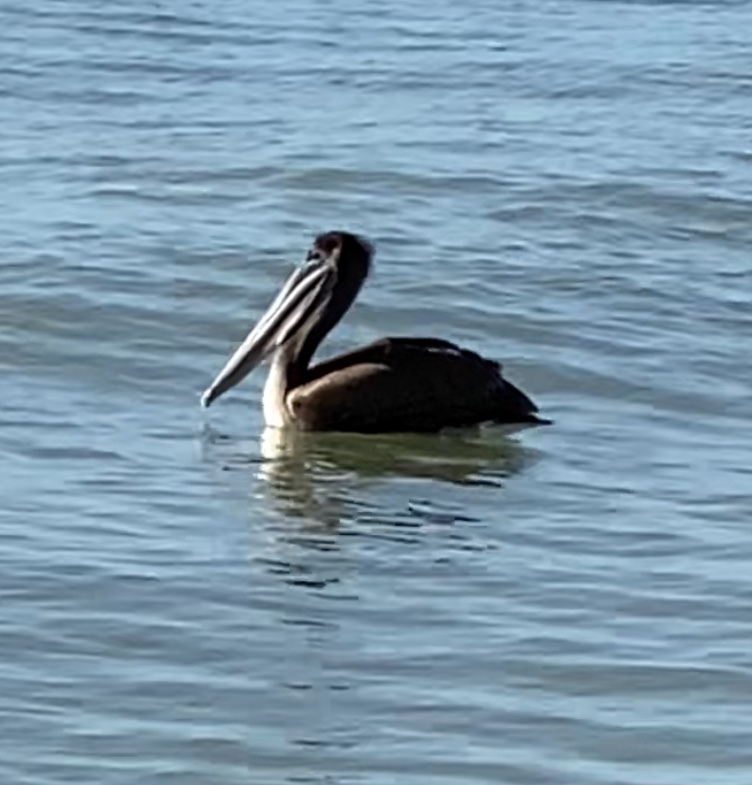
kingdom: Animalia
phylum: Chordata
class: Aves
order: Pelecaniformes
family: Pelecanidae
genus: Pelecanus
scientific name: Pelecanus occidentalis
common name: Brown pelican
